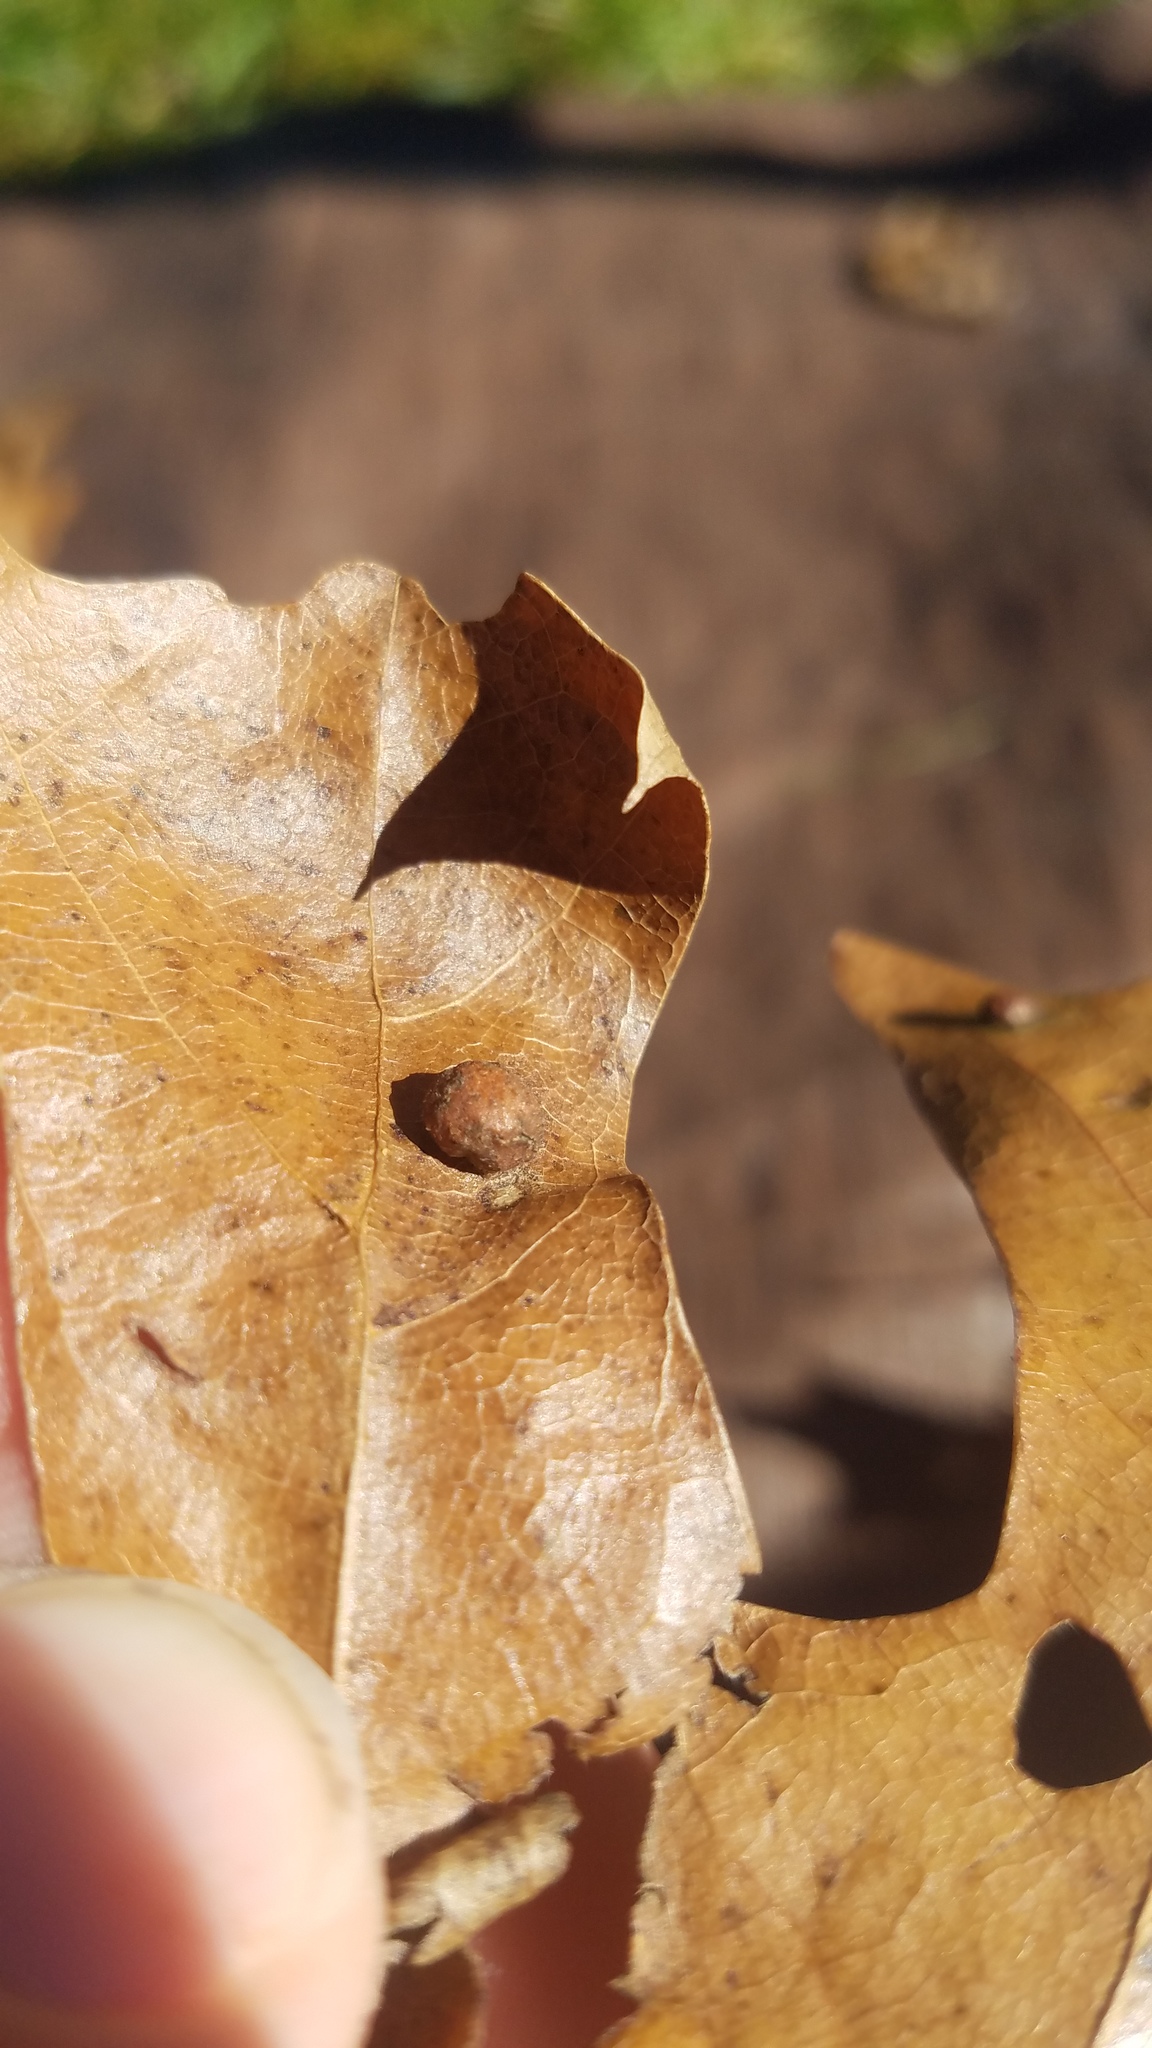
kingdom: Animalia
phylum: Arthropoda
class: Insecta
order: Diptera
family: Cecidomyiidae
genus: Polystepha
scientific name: Polystepha pilulae
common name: Oak leaf gall midge
